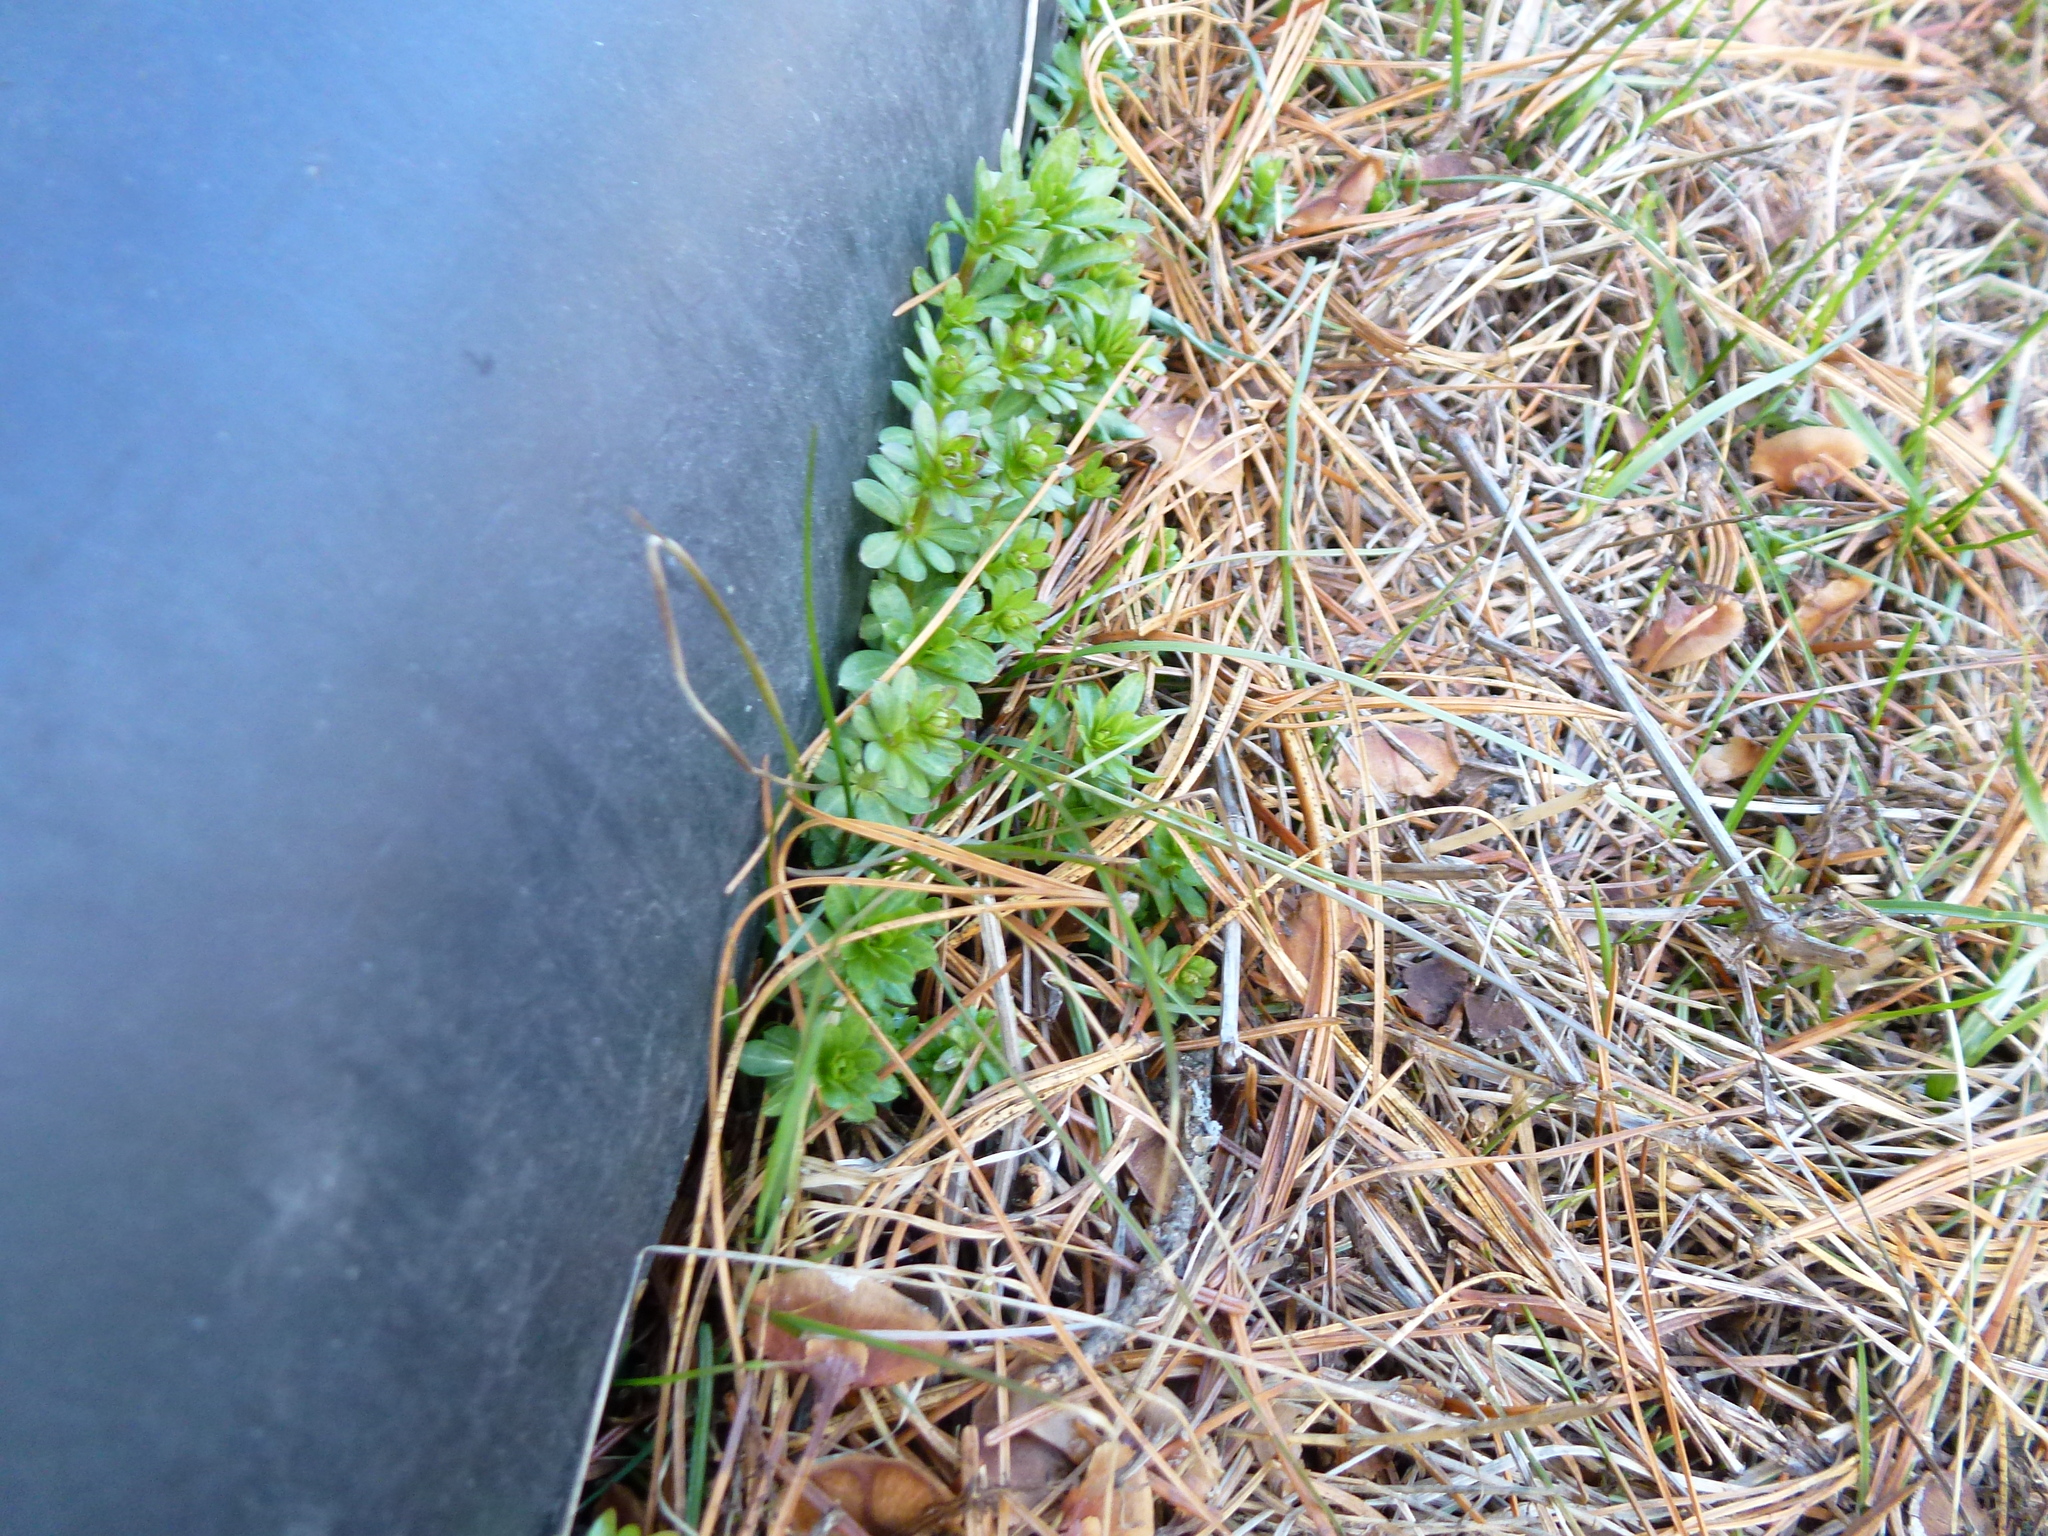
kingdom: Plantae
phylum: Tracheophyta
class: Magnoliopsida
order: Gentianales
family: Rubiaceae
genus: Galium
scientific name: Galium mollugo
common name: Hedge bedstraw
